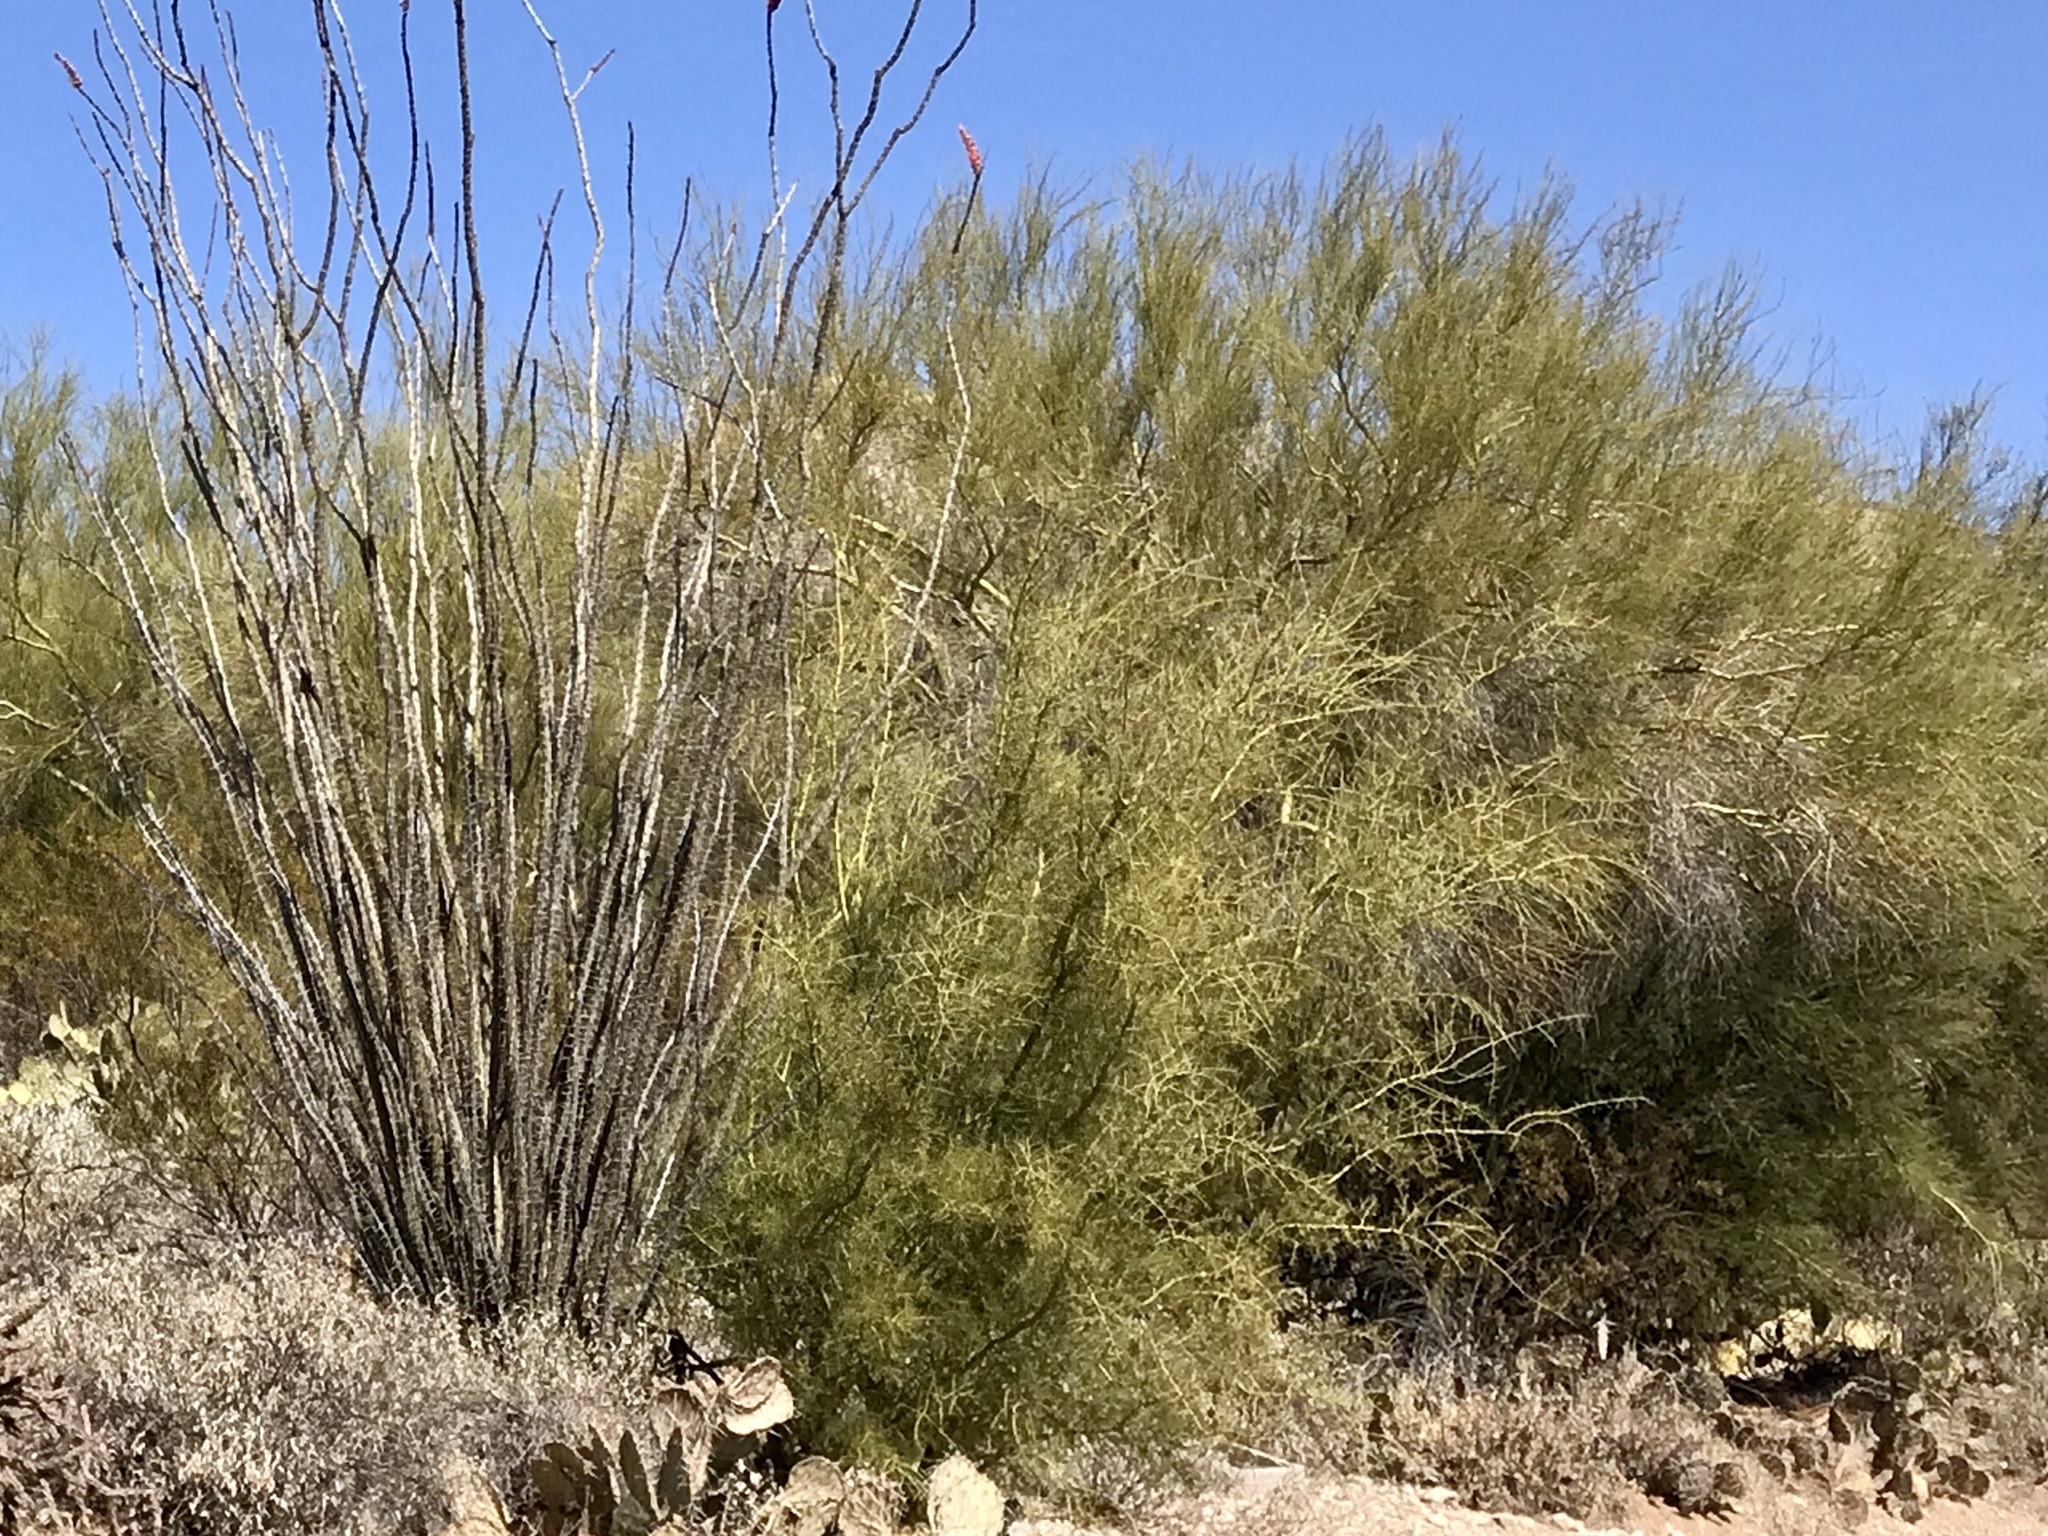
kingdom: Plantae
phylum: Tracheophyta
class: Magnoliopsida
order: Fabales
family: Fabaceae
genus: Parkinsonia
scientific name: Parkinsonia microphylla
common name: Yellow paloverde
